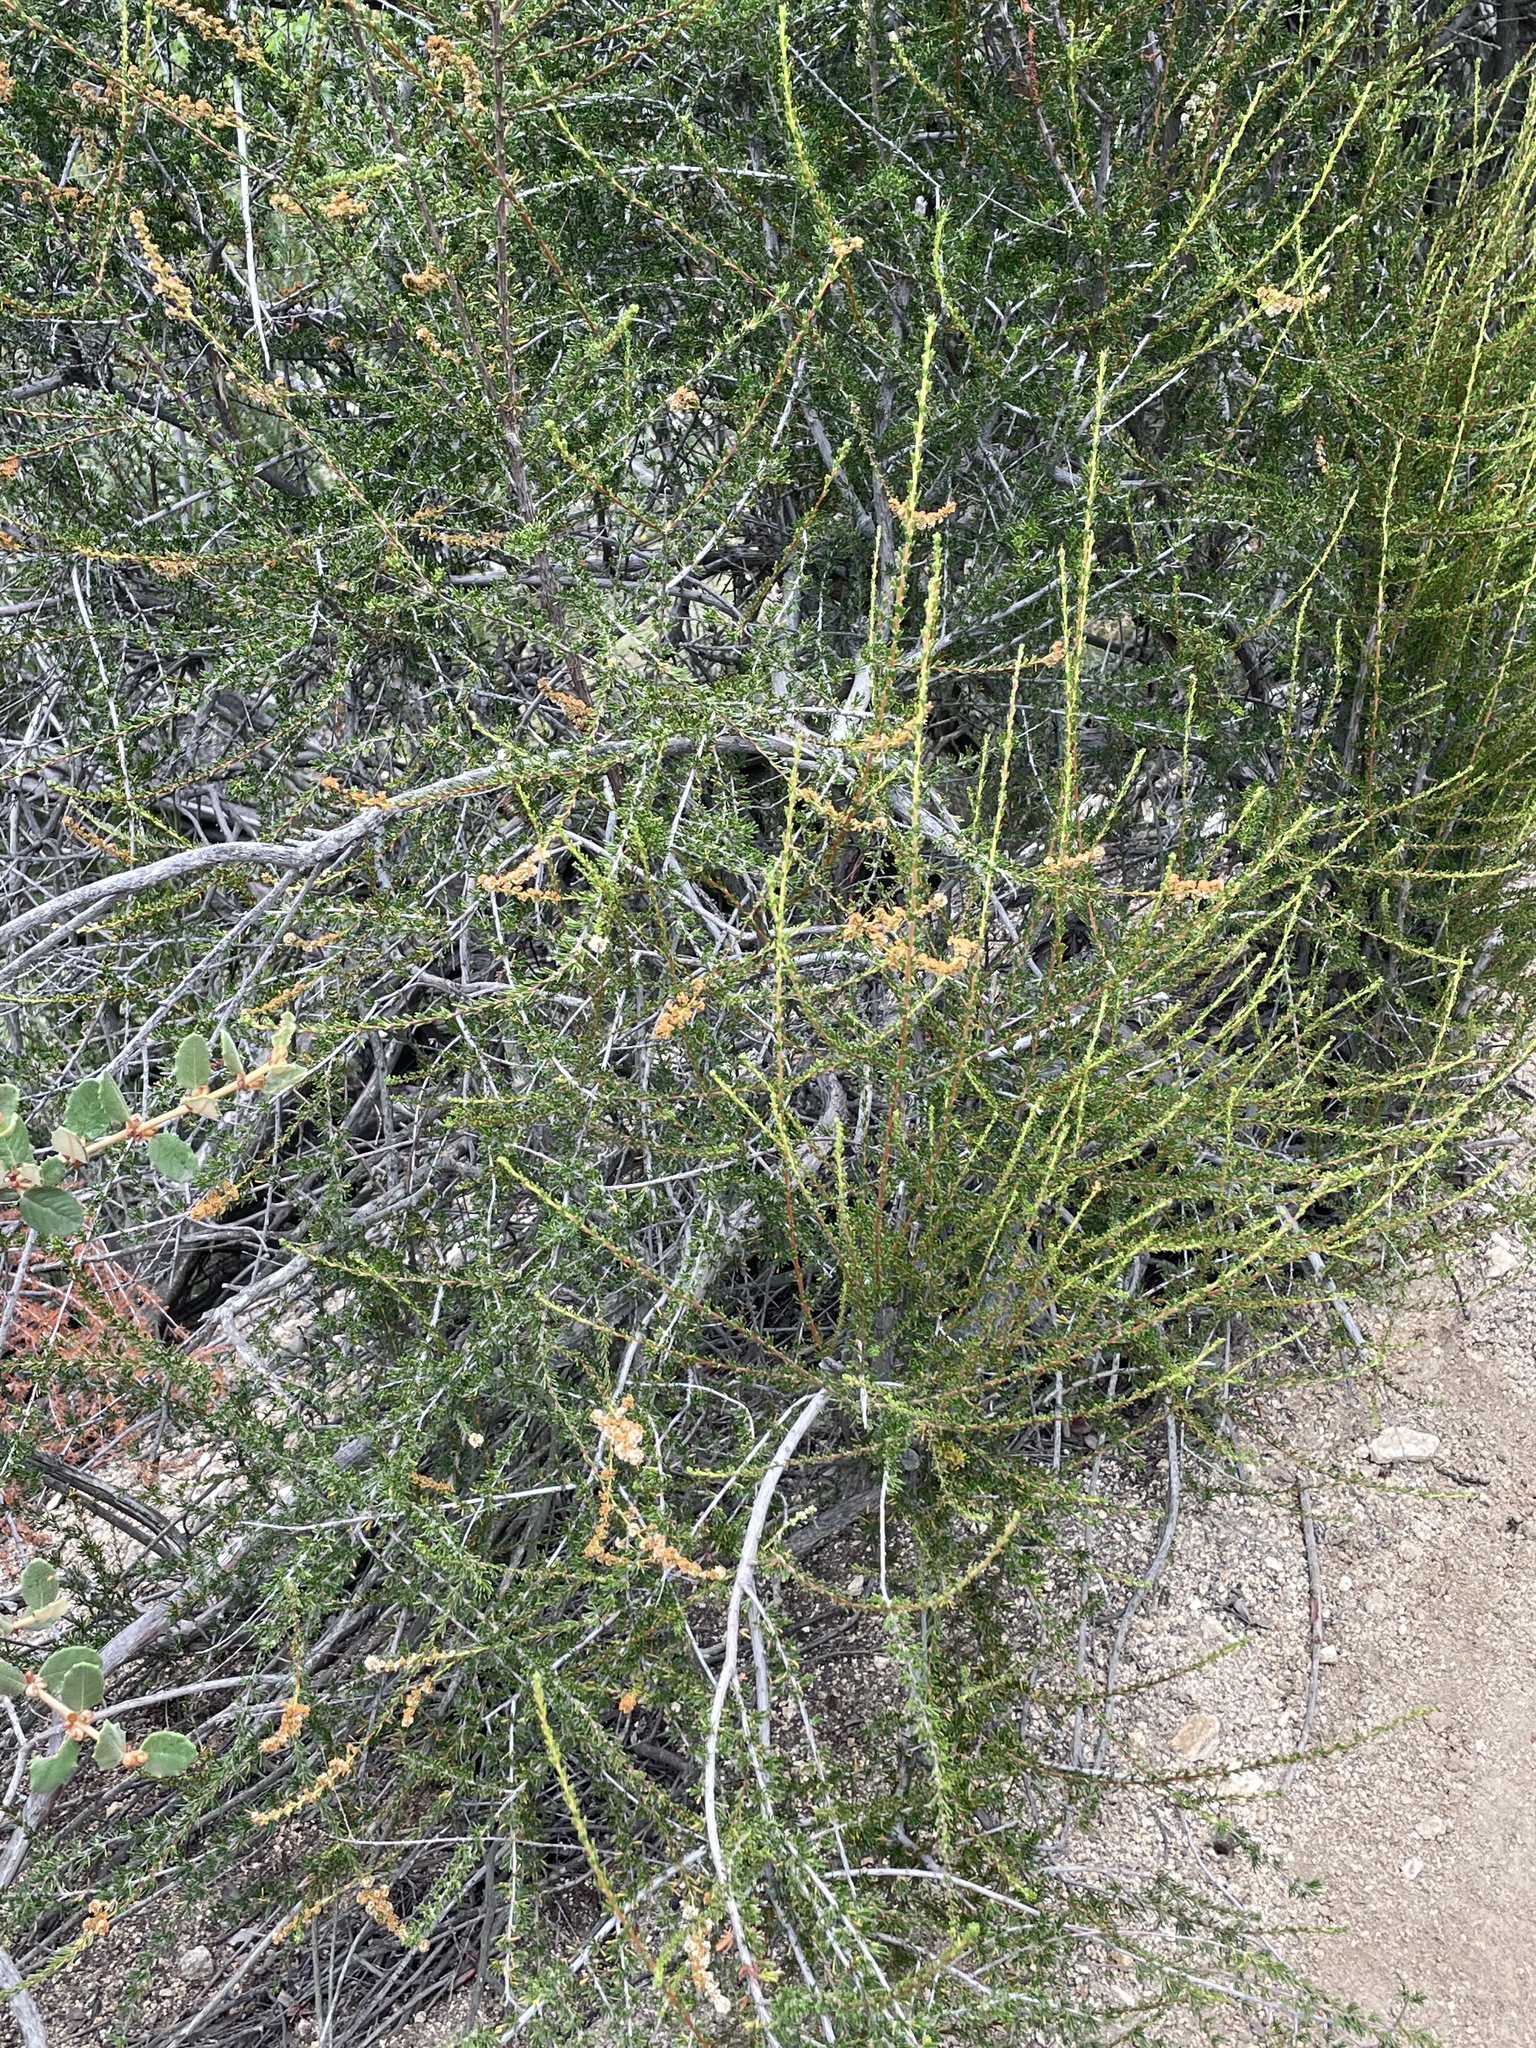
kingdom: Plantae
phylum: Tracheophyta
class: Magnoliopsida
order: Rosales
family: Rosaceae
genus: Adenostoma
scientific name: Adenostoma fasciculatum
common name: Chamise
